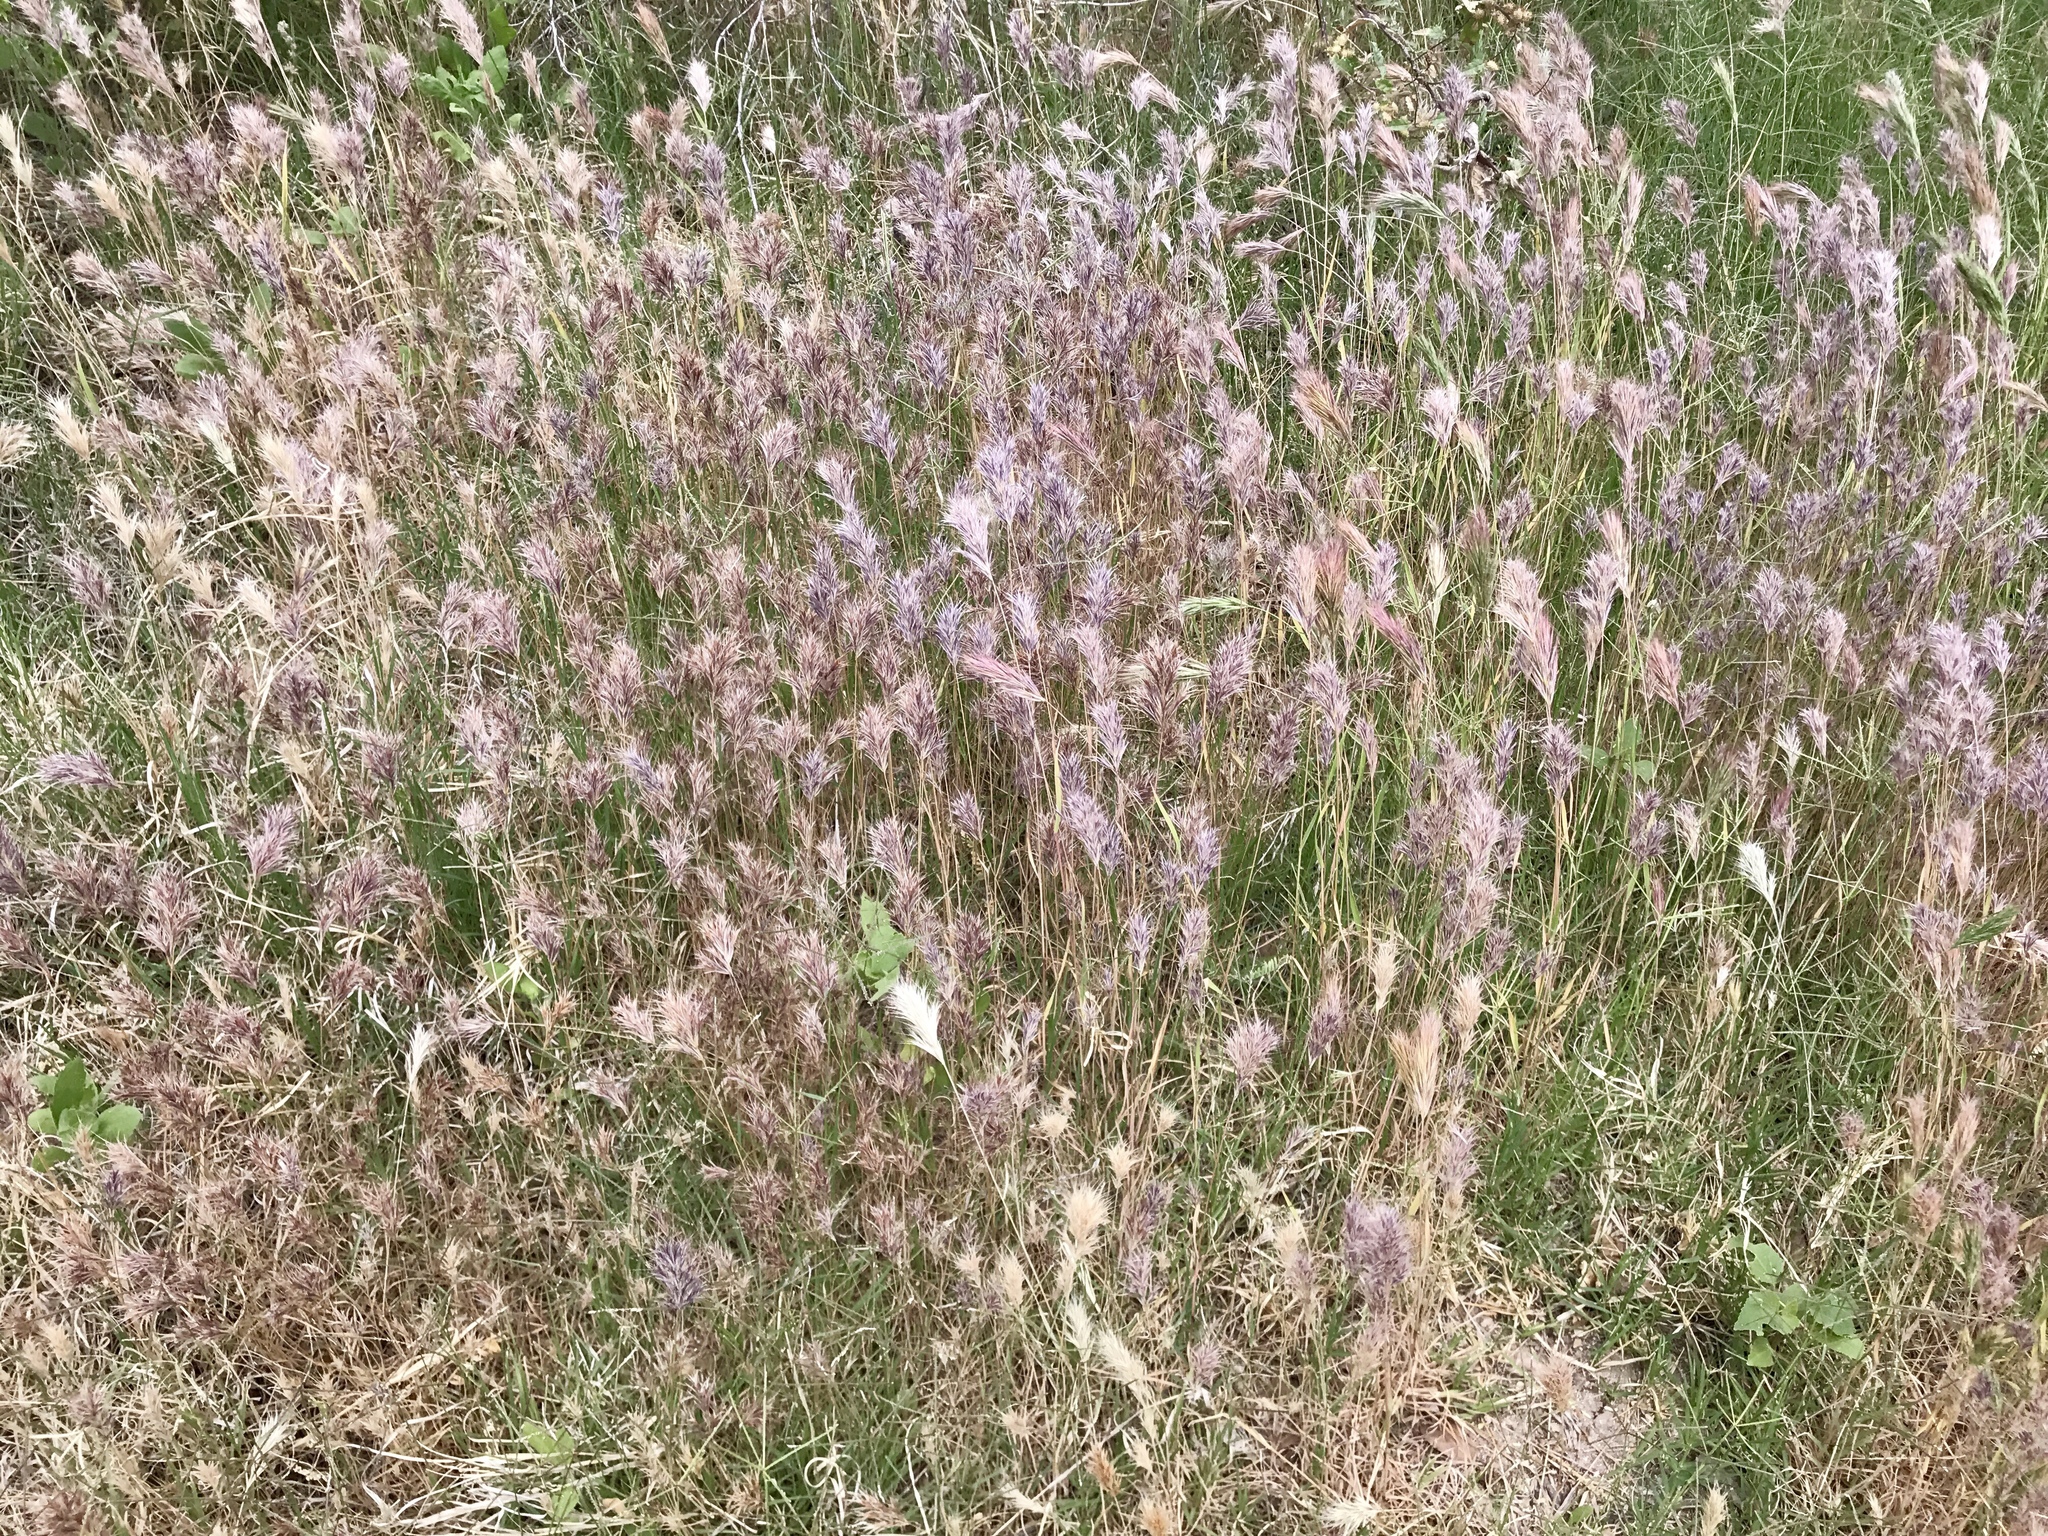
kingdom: Plantae
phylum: Tracheophyta
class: Liliopsida
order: Poales
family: Poaceae
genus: Bromus
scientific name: Bromus rubens
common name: Red brome
